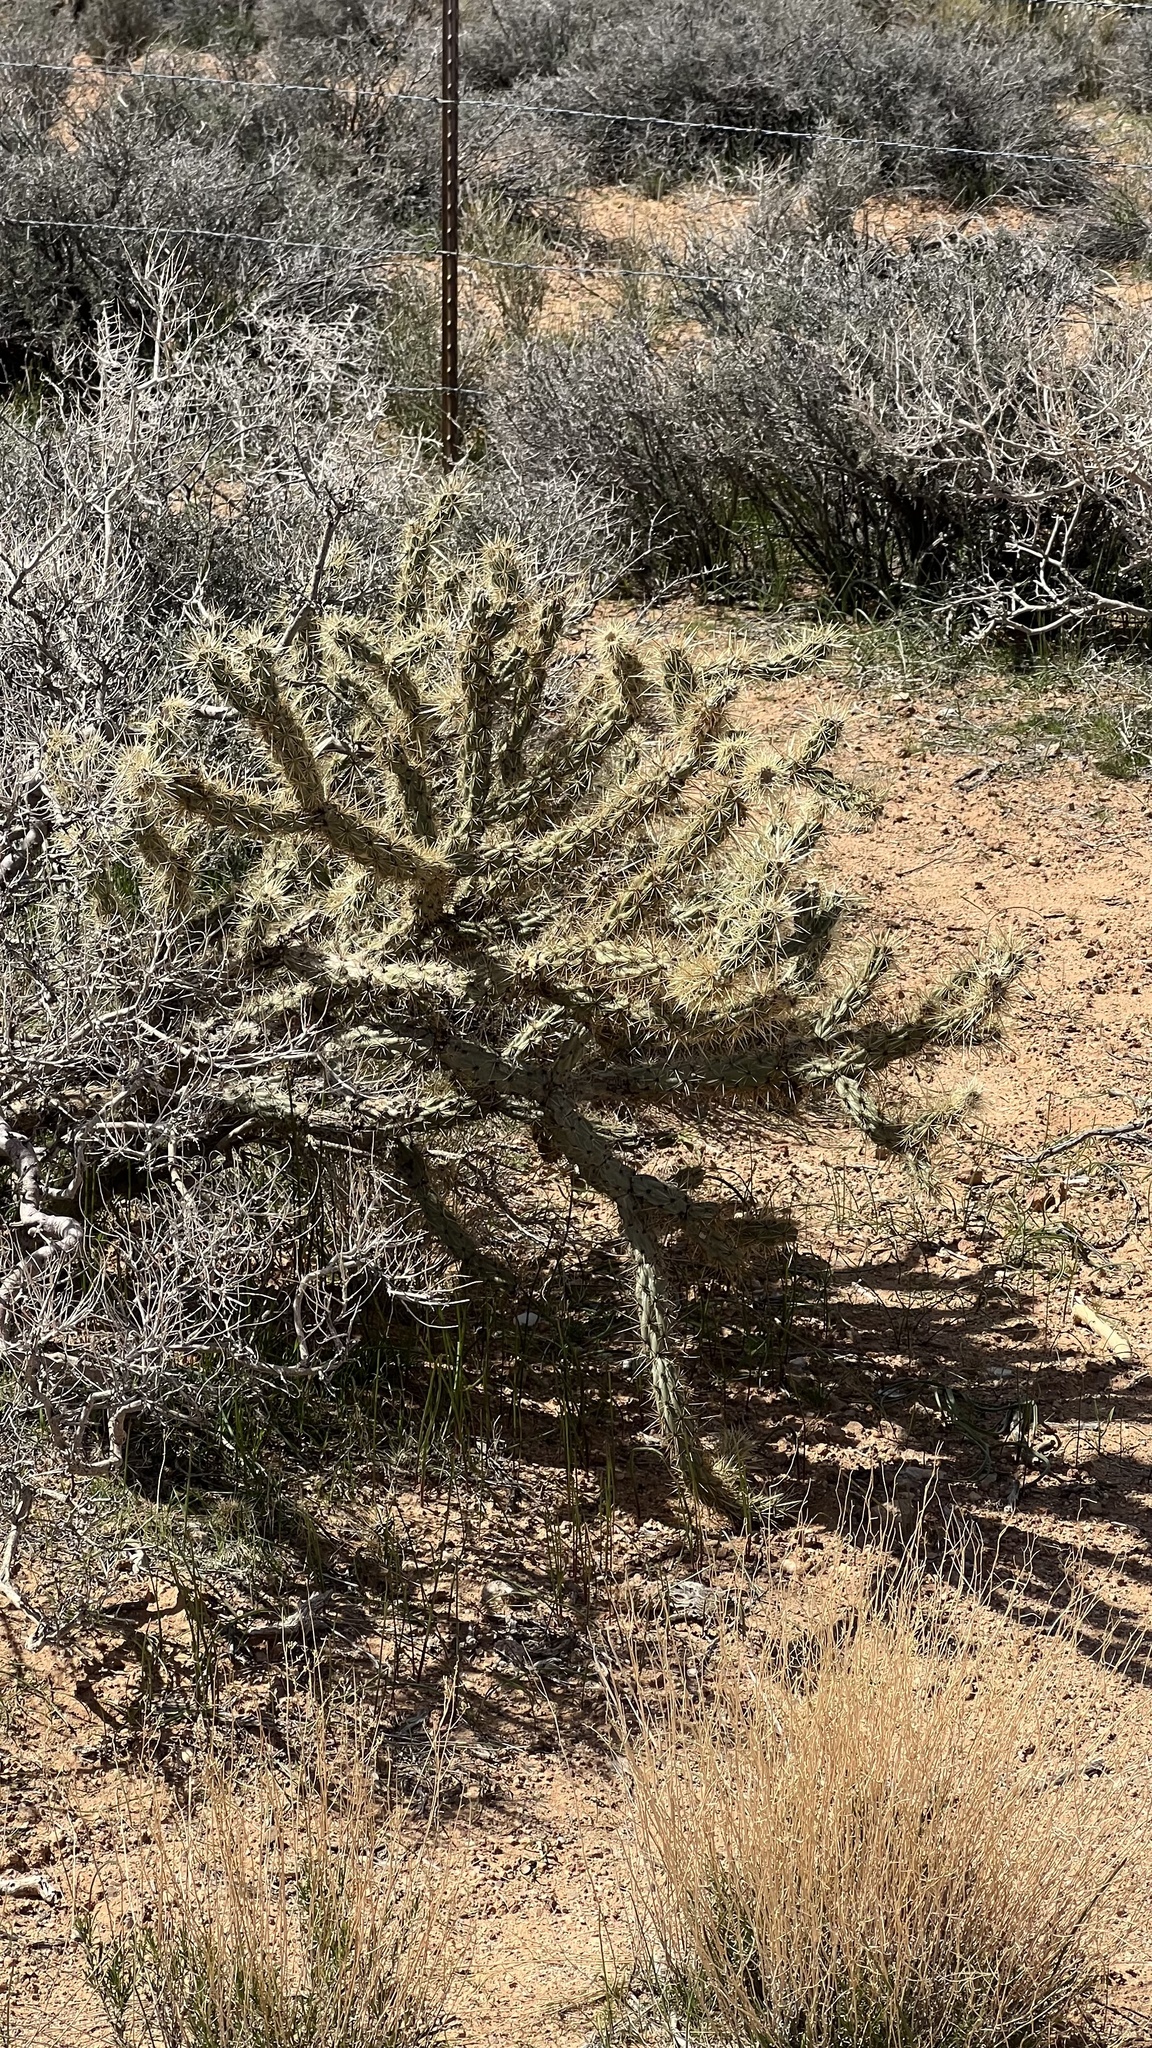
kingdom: Plantae
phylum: Tracheophyta
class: Magnoliopsida
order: Caryophyllales
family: Cactaceae
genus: Cylindropuntia
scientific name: Cylindropuntia acanthocarpa
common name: Buckhorn cholla
